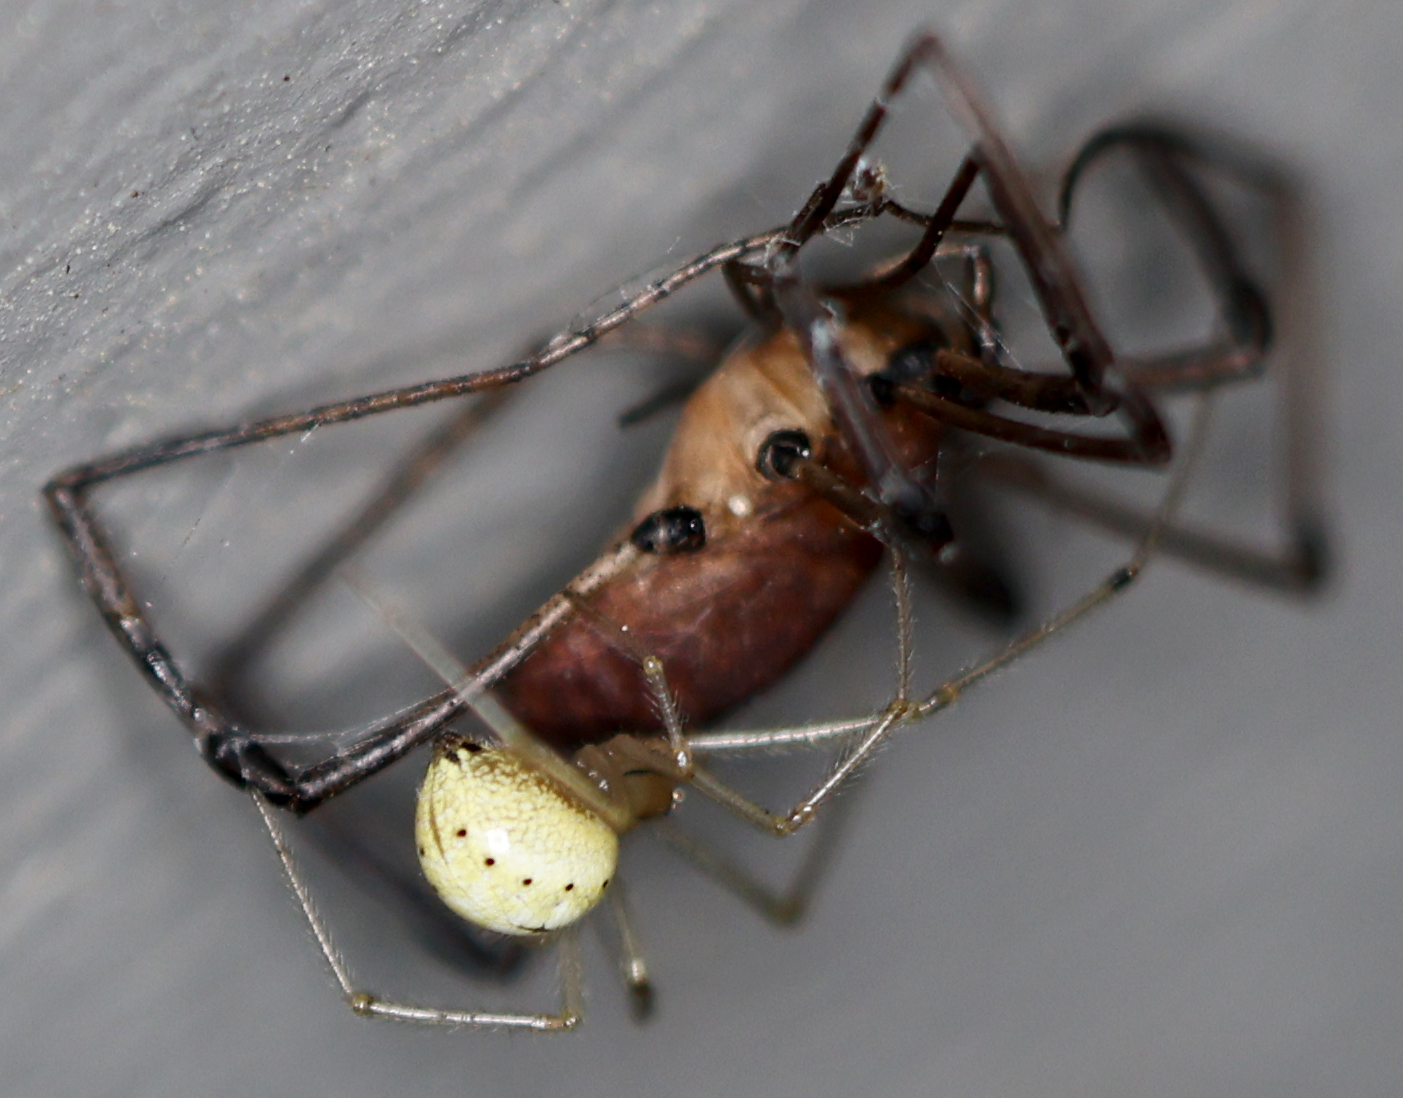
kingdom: Animalia
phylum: Arthropoda
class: Arachnida
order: Araneae
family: Theridiidae
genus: Enoplognatha
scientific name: Enoplognatha ovata
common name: Common candy-striped spider
